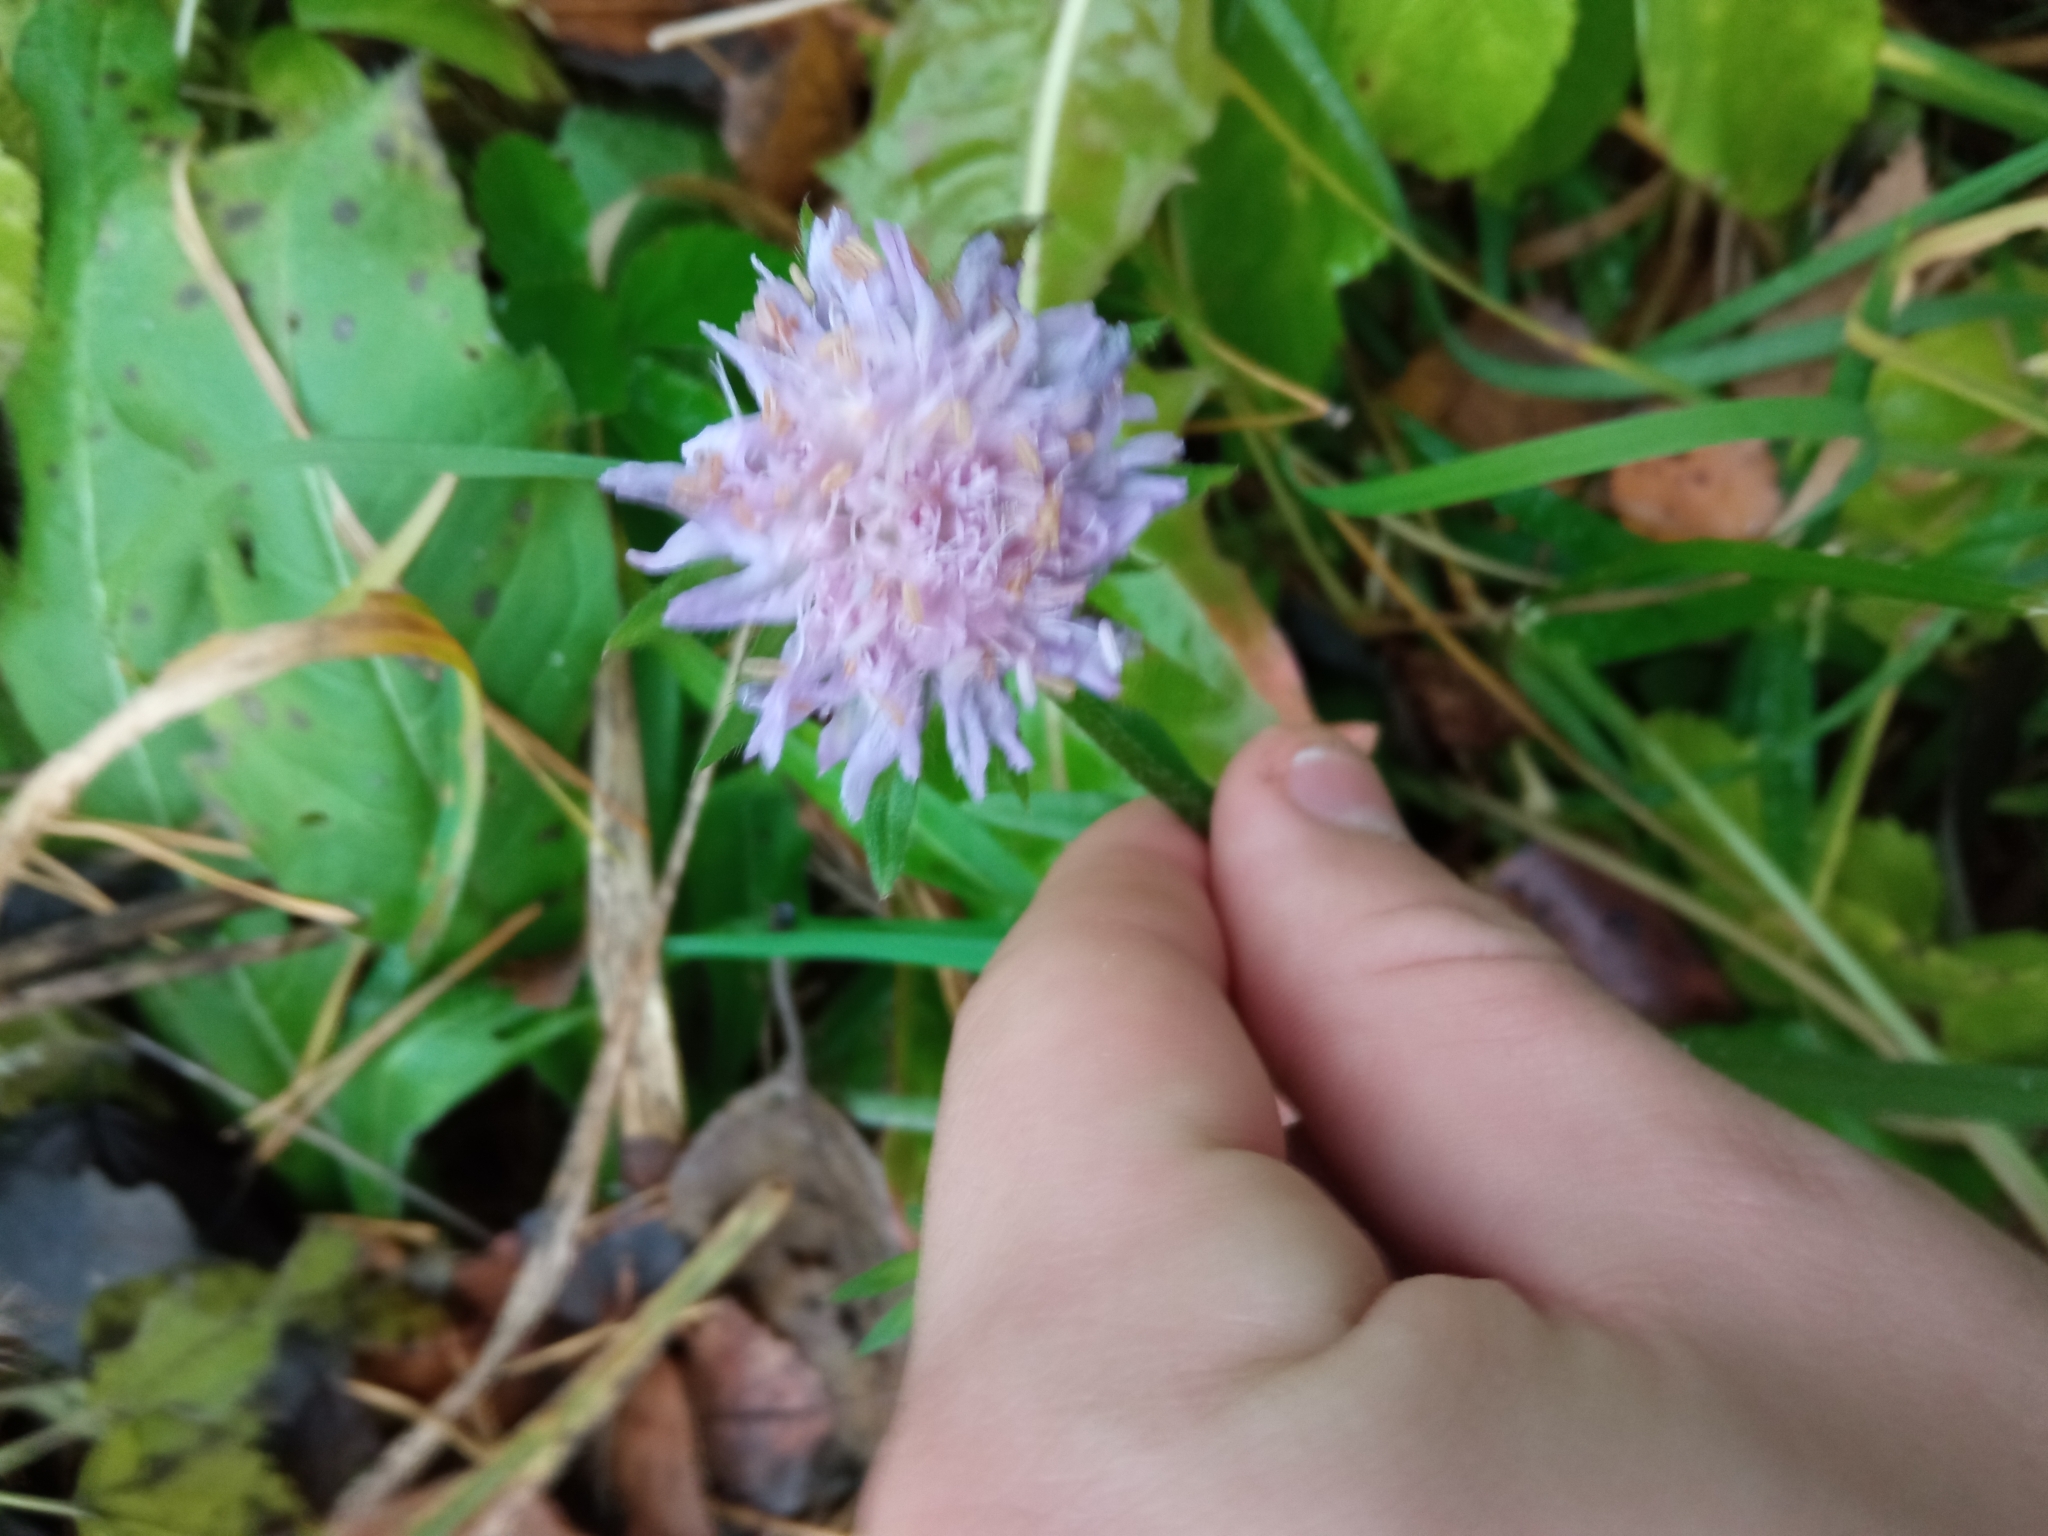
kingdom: Plantae
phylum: Tracheophyta
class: Magnoliopsida
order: Dipsacales
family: Caprifoliaceae
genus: Knautia
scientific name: Knautia arvensis
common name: Field scabiosa
